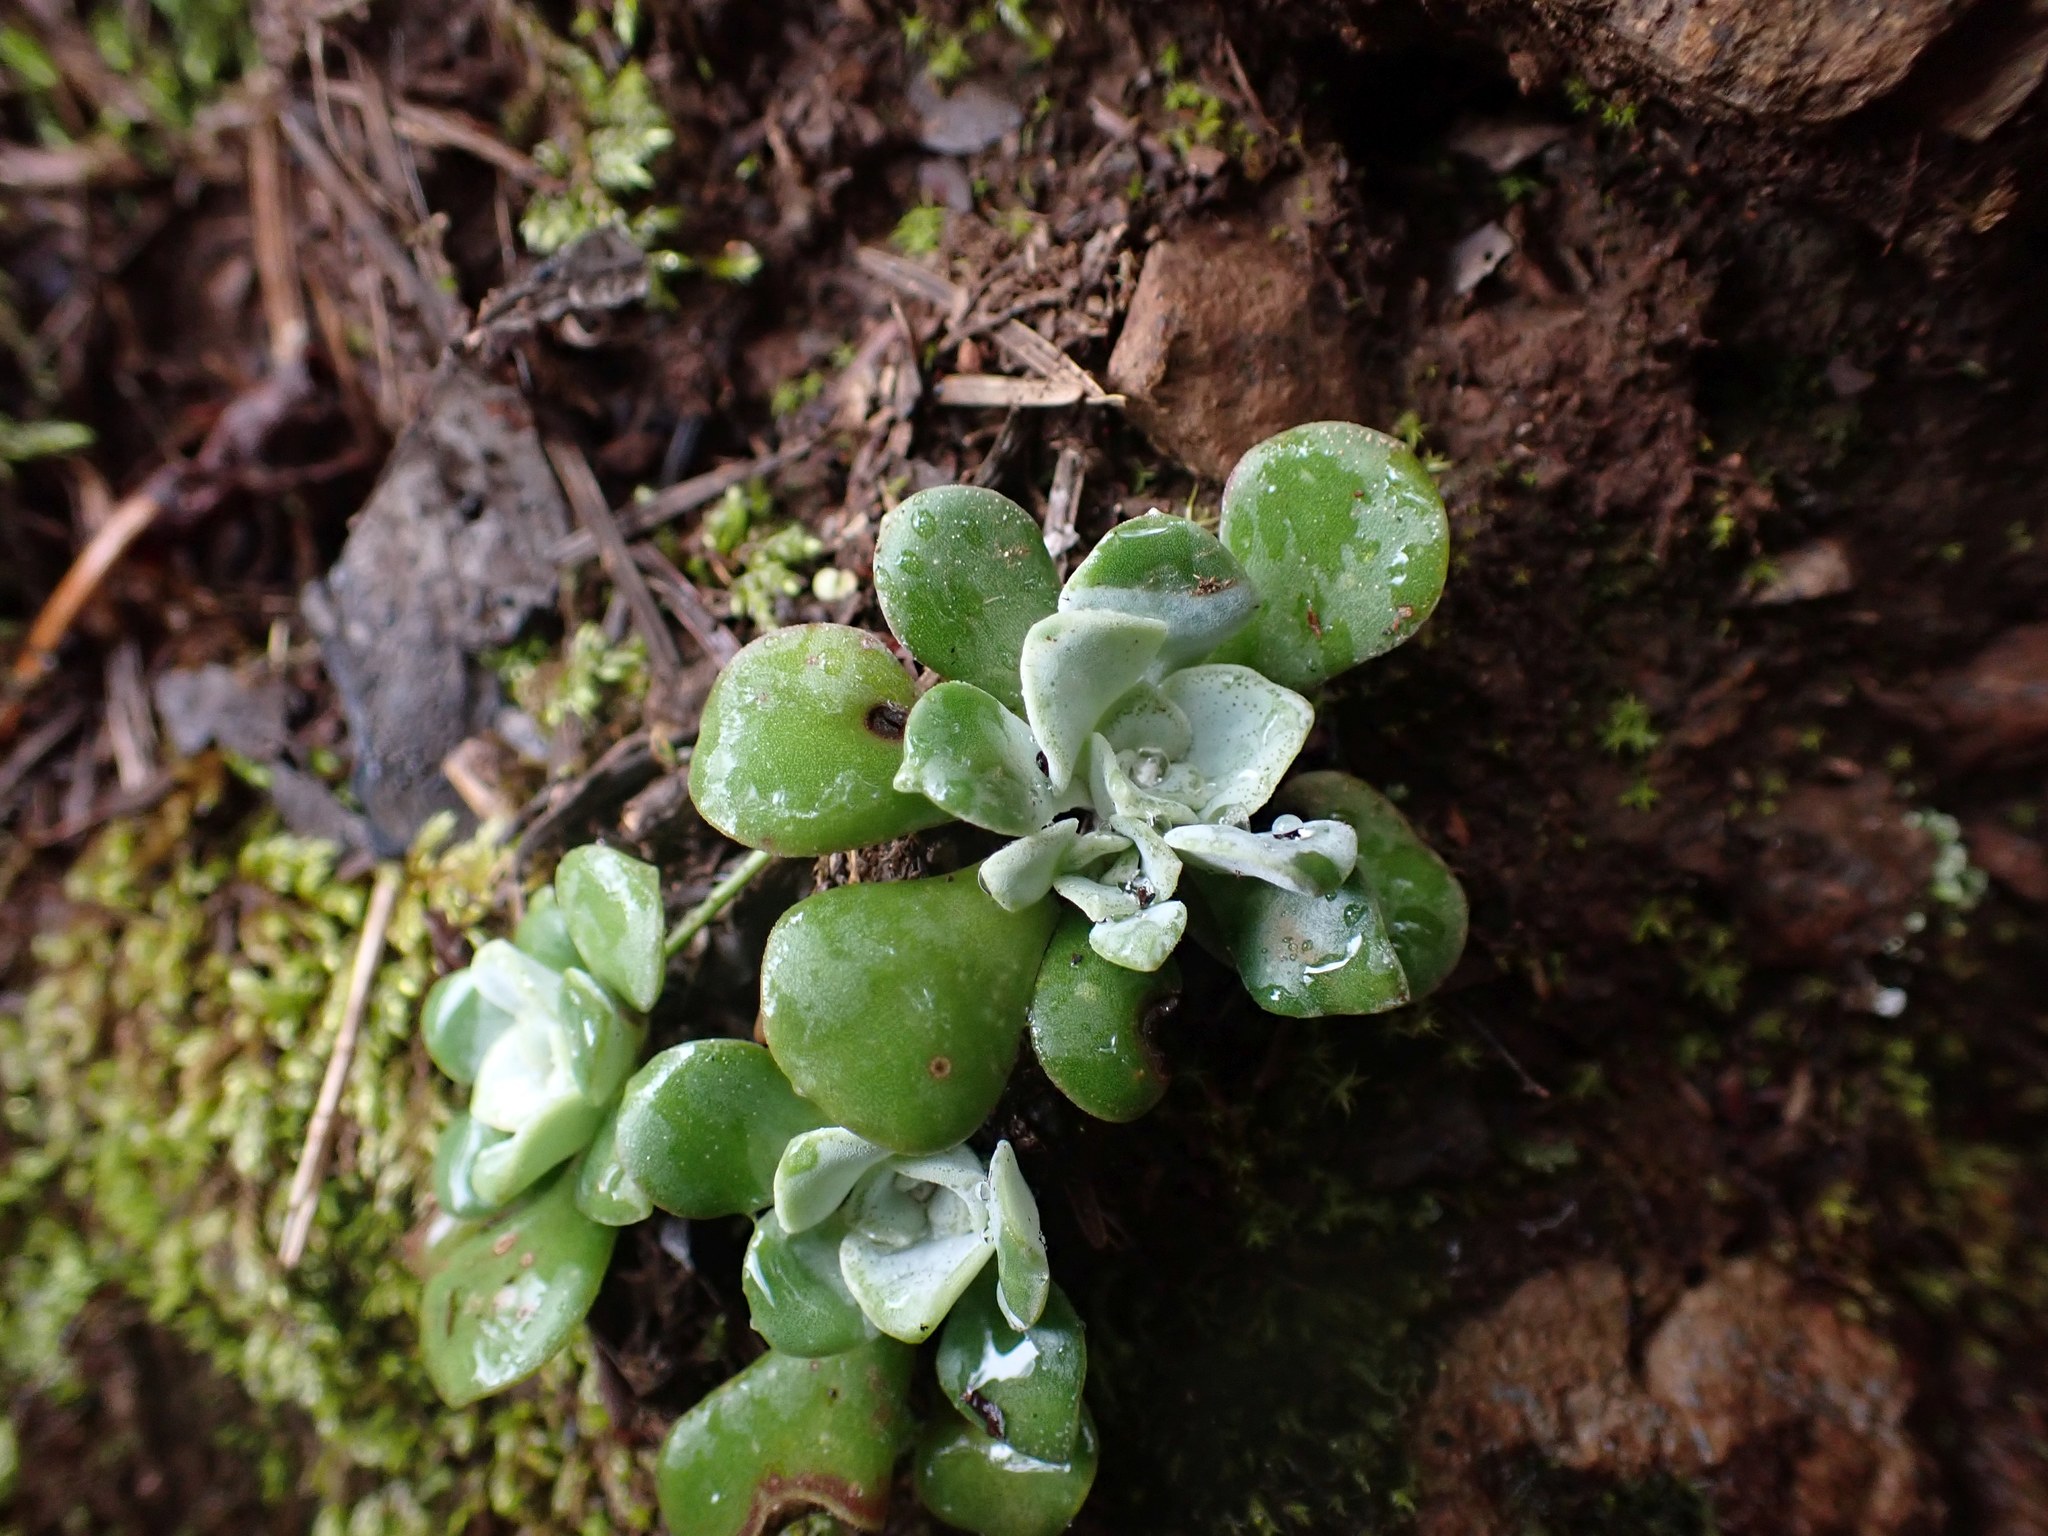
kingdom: Plantae
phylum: Tracheophyta
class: Magnoliopsida
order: Saxifragales
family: Crassulaceae
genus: Sedum
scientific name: Sedum spathulifolium
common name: Colorado stonecrop
